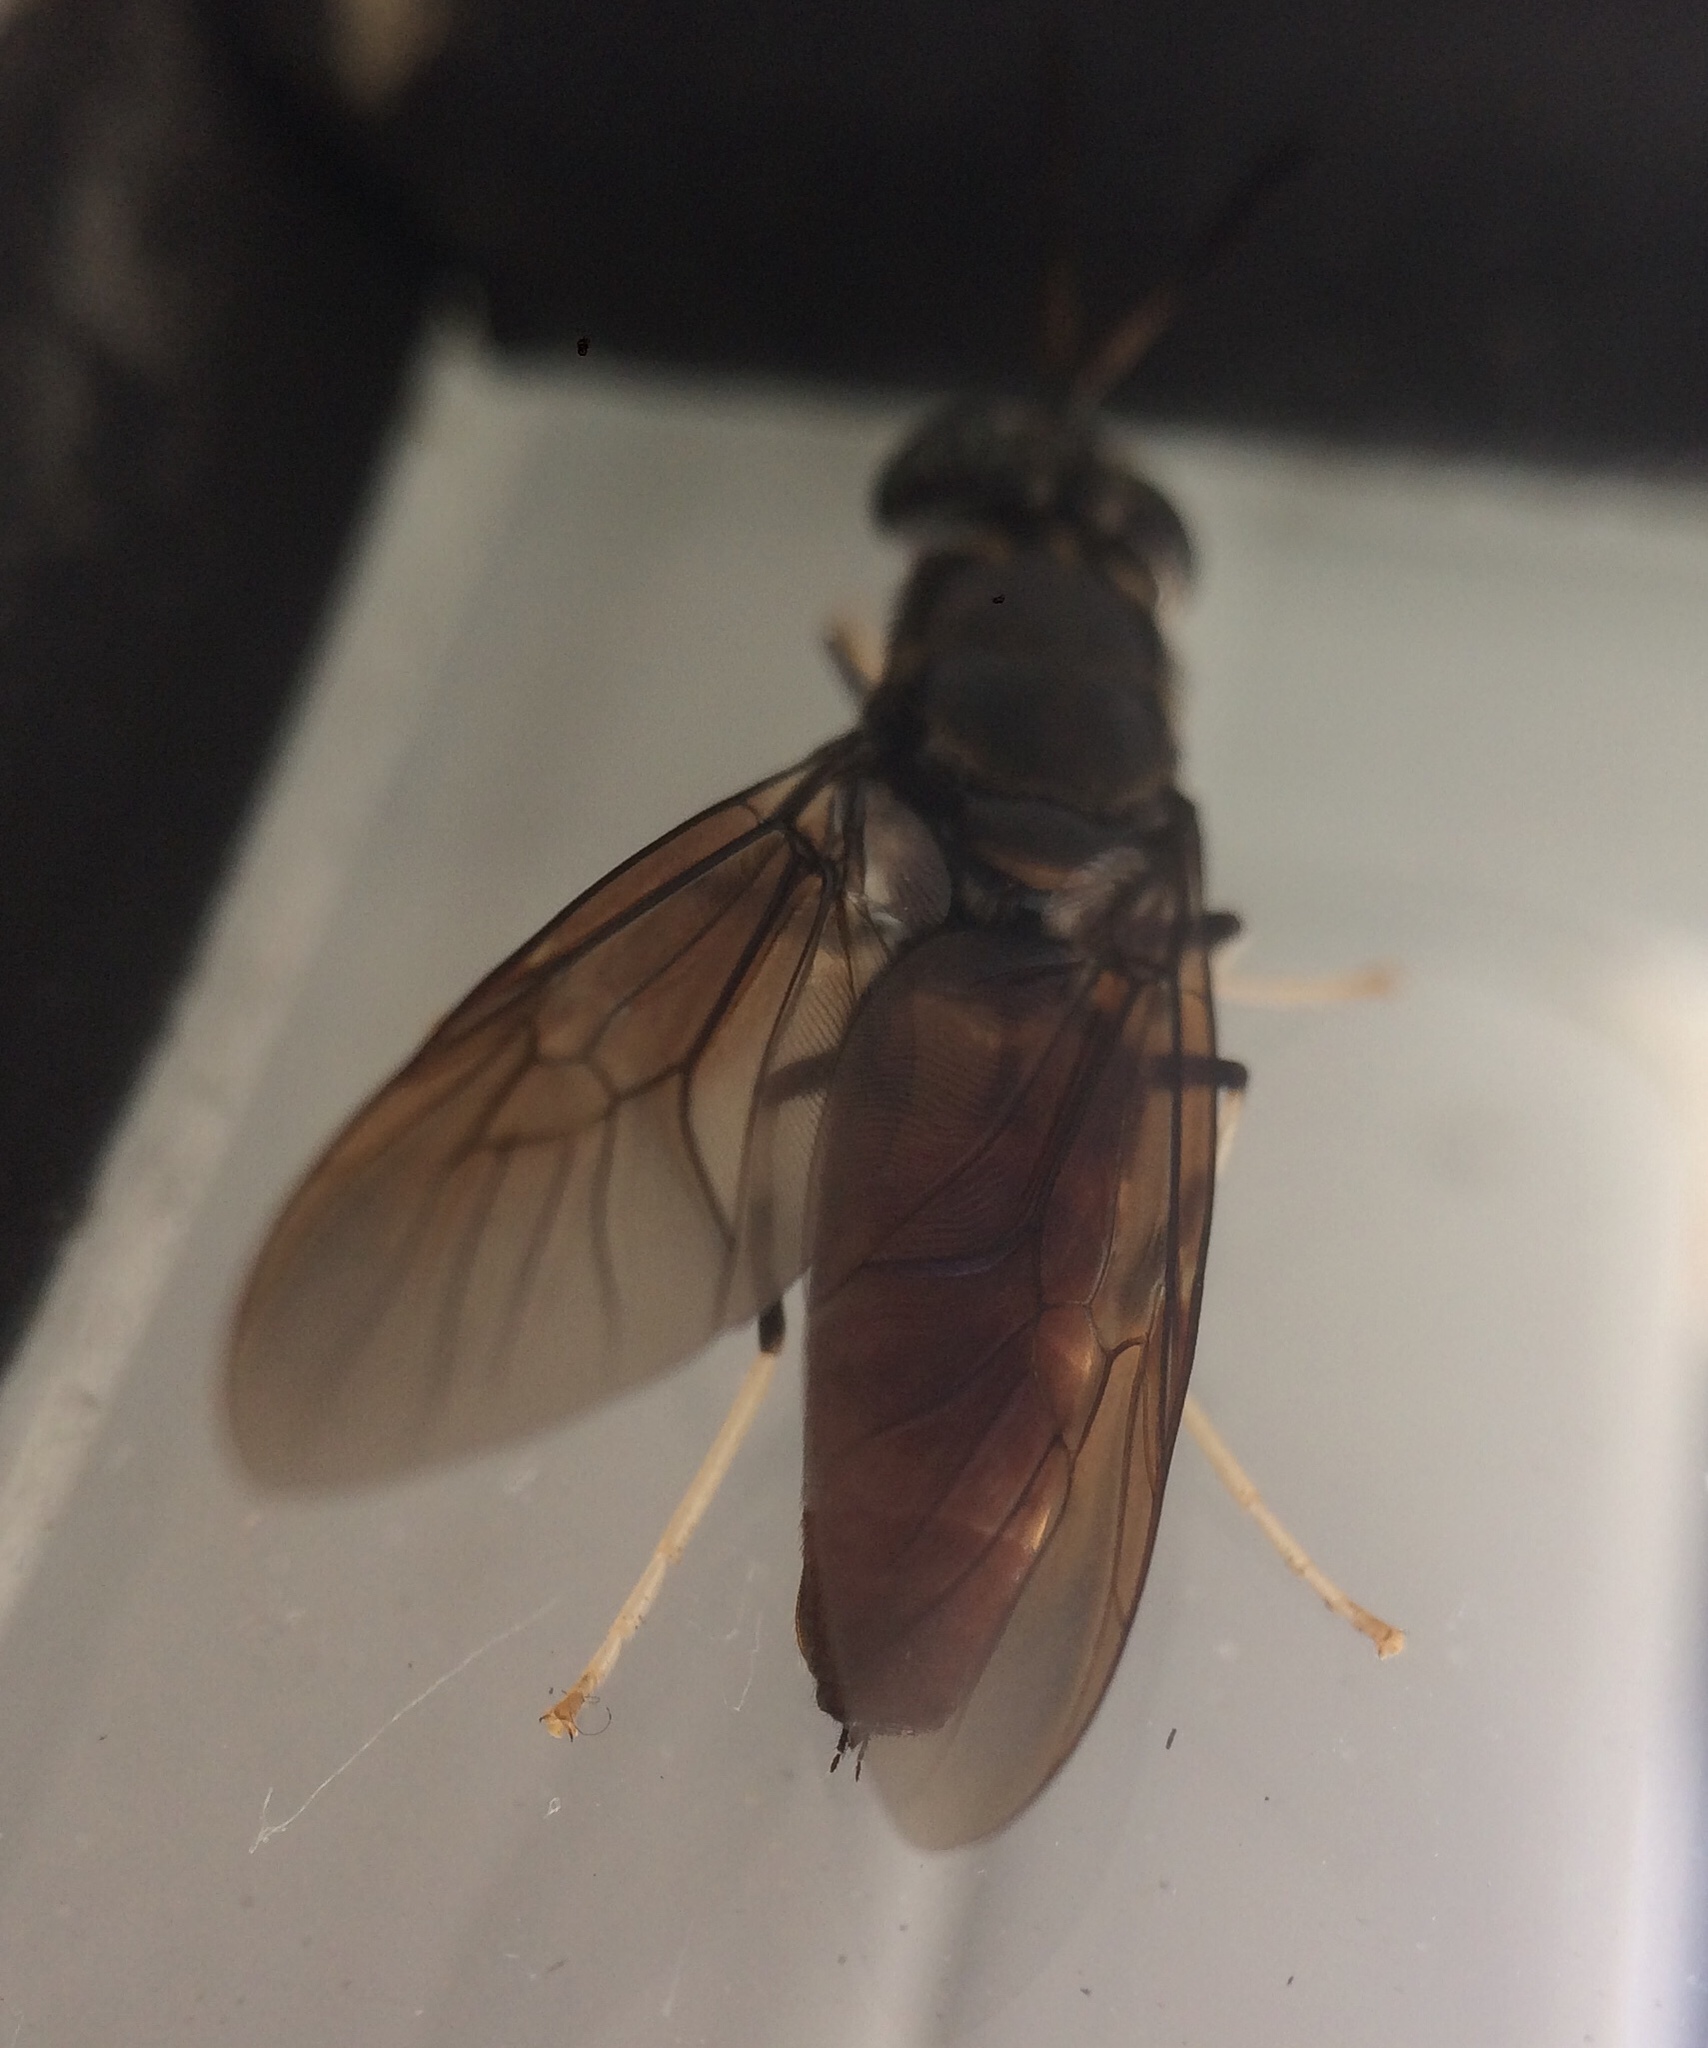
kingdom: Animalia
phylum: Arthropoda
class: Insecta
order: Diptera
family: Stratiomyidae
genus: Hermetia
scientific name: Hermetia illucens
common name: Black soldier fly
